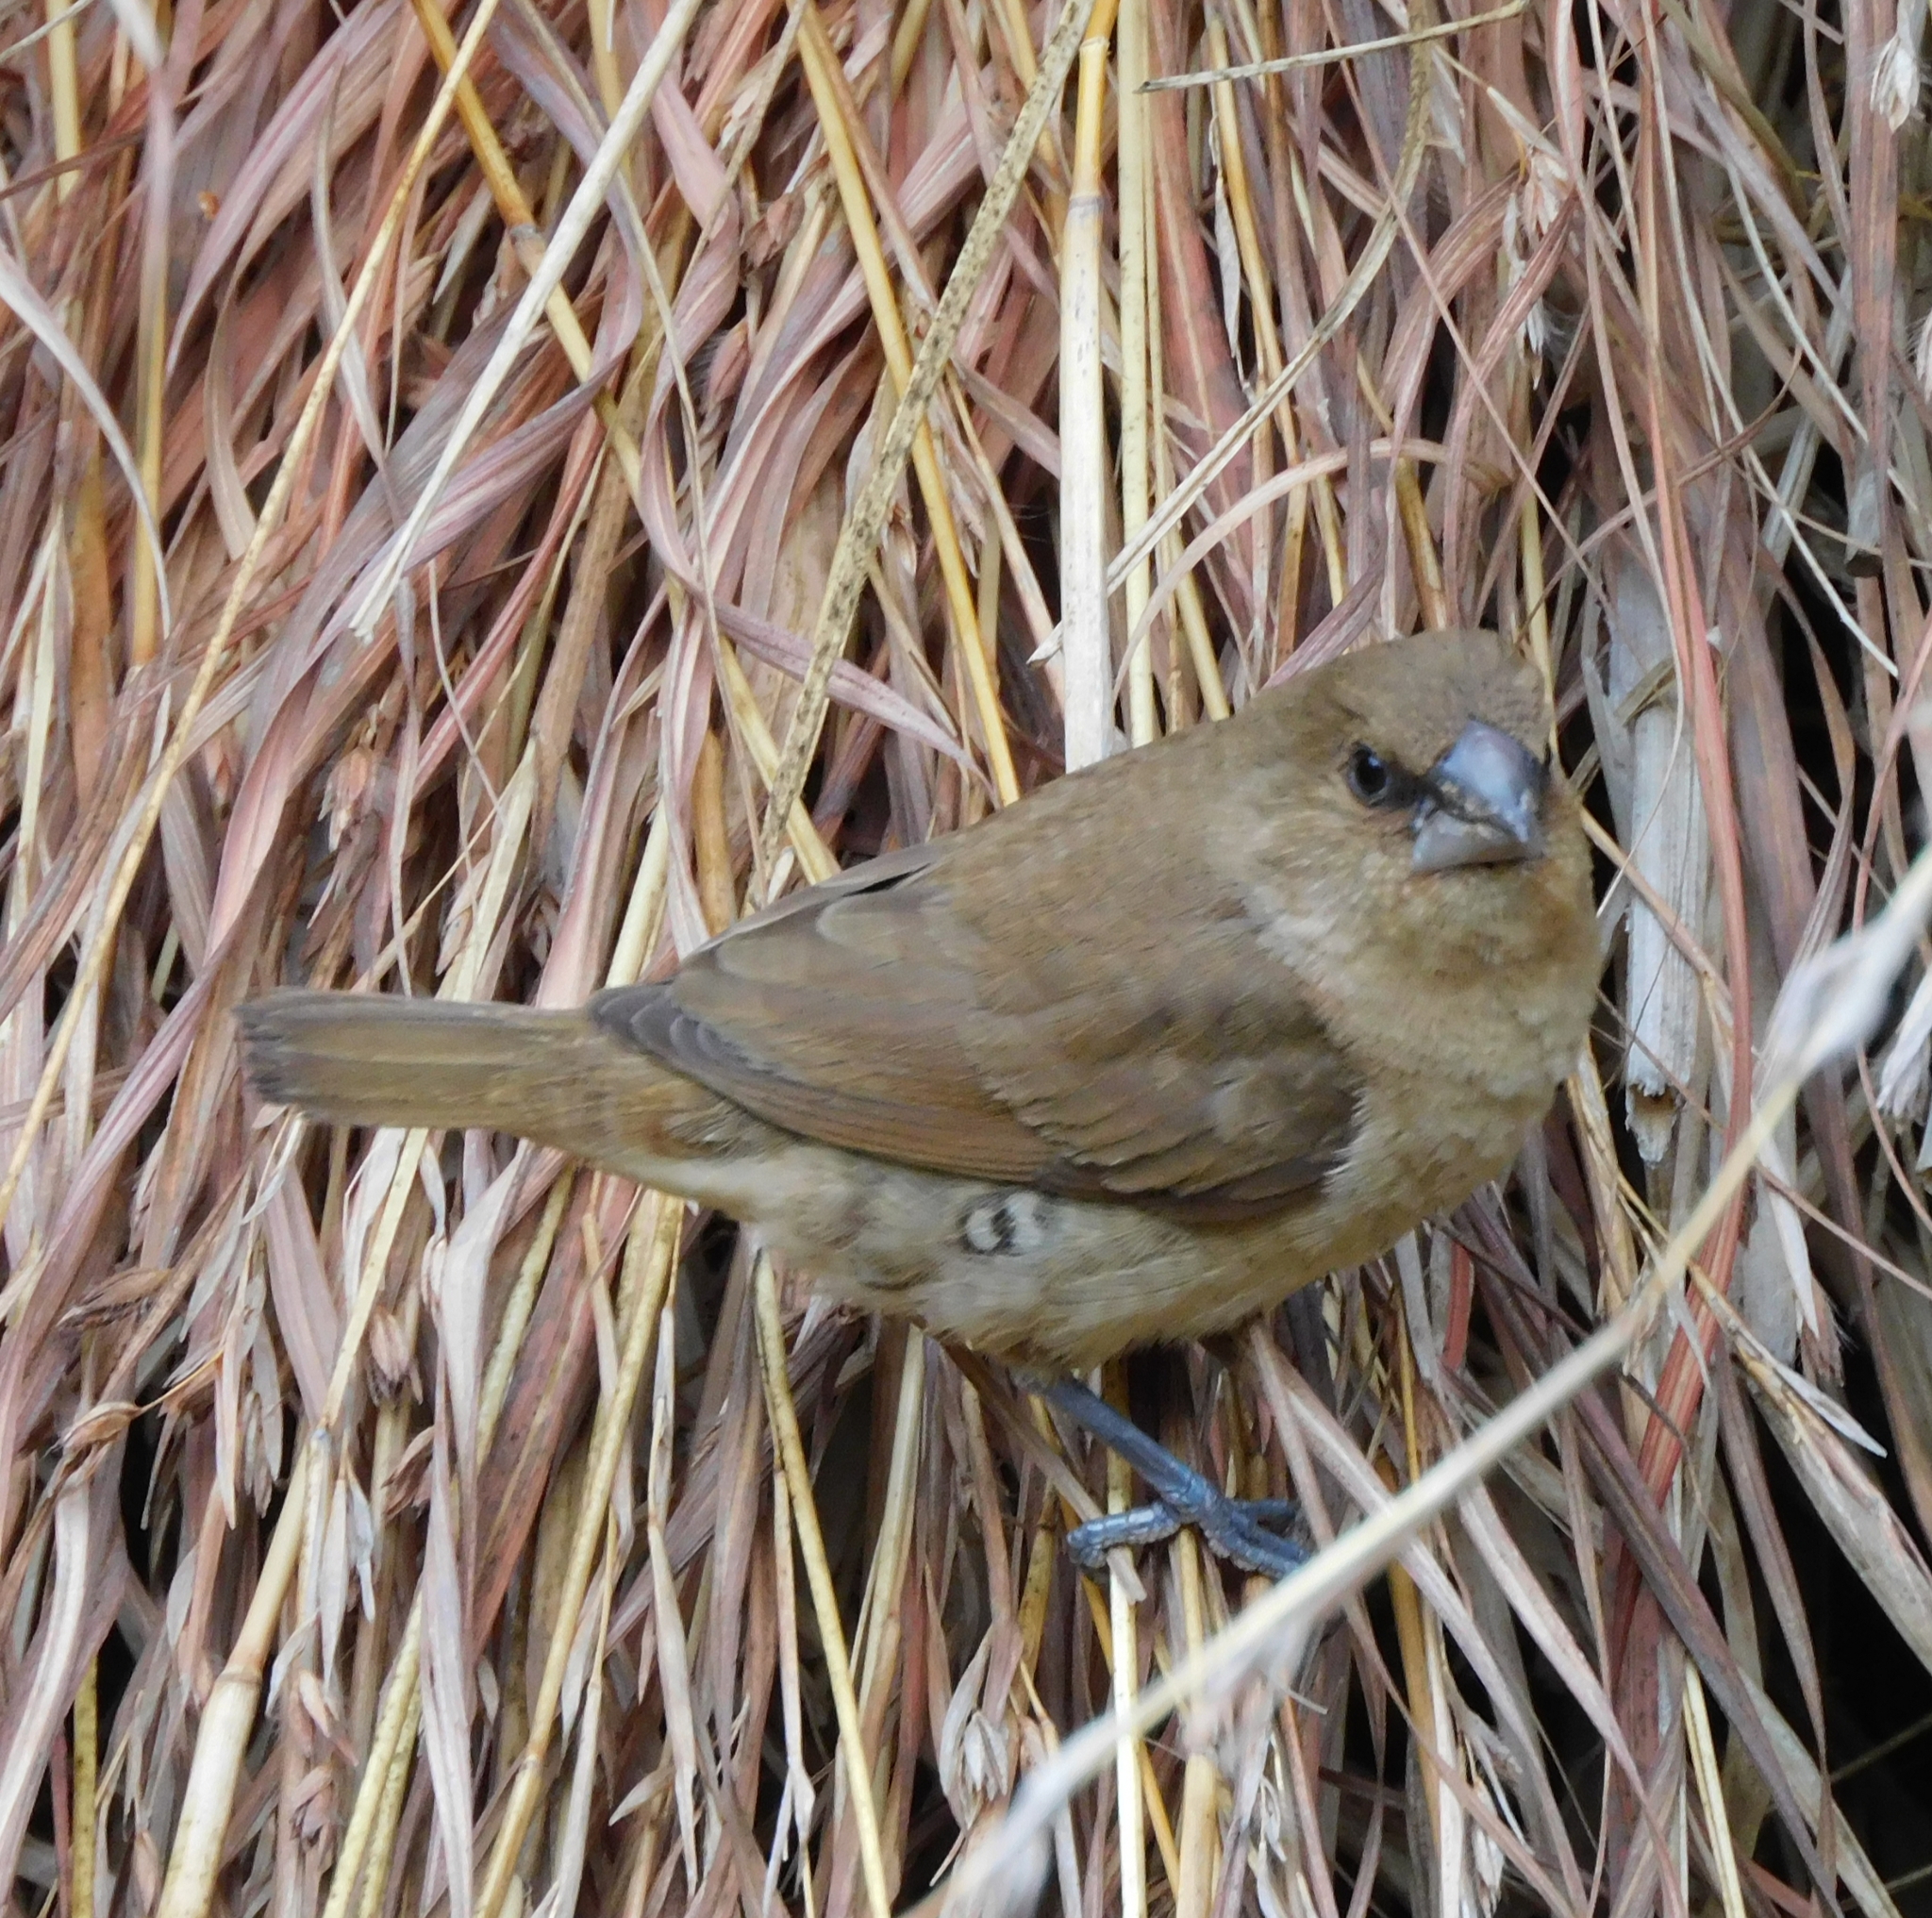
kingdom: Animalia
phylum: Chordata
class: Aves
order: Passeriformes
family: Estrildidae
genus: Lonchura
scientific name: Lonchura punctulata
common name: Scaly-breasted munia
